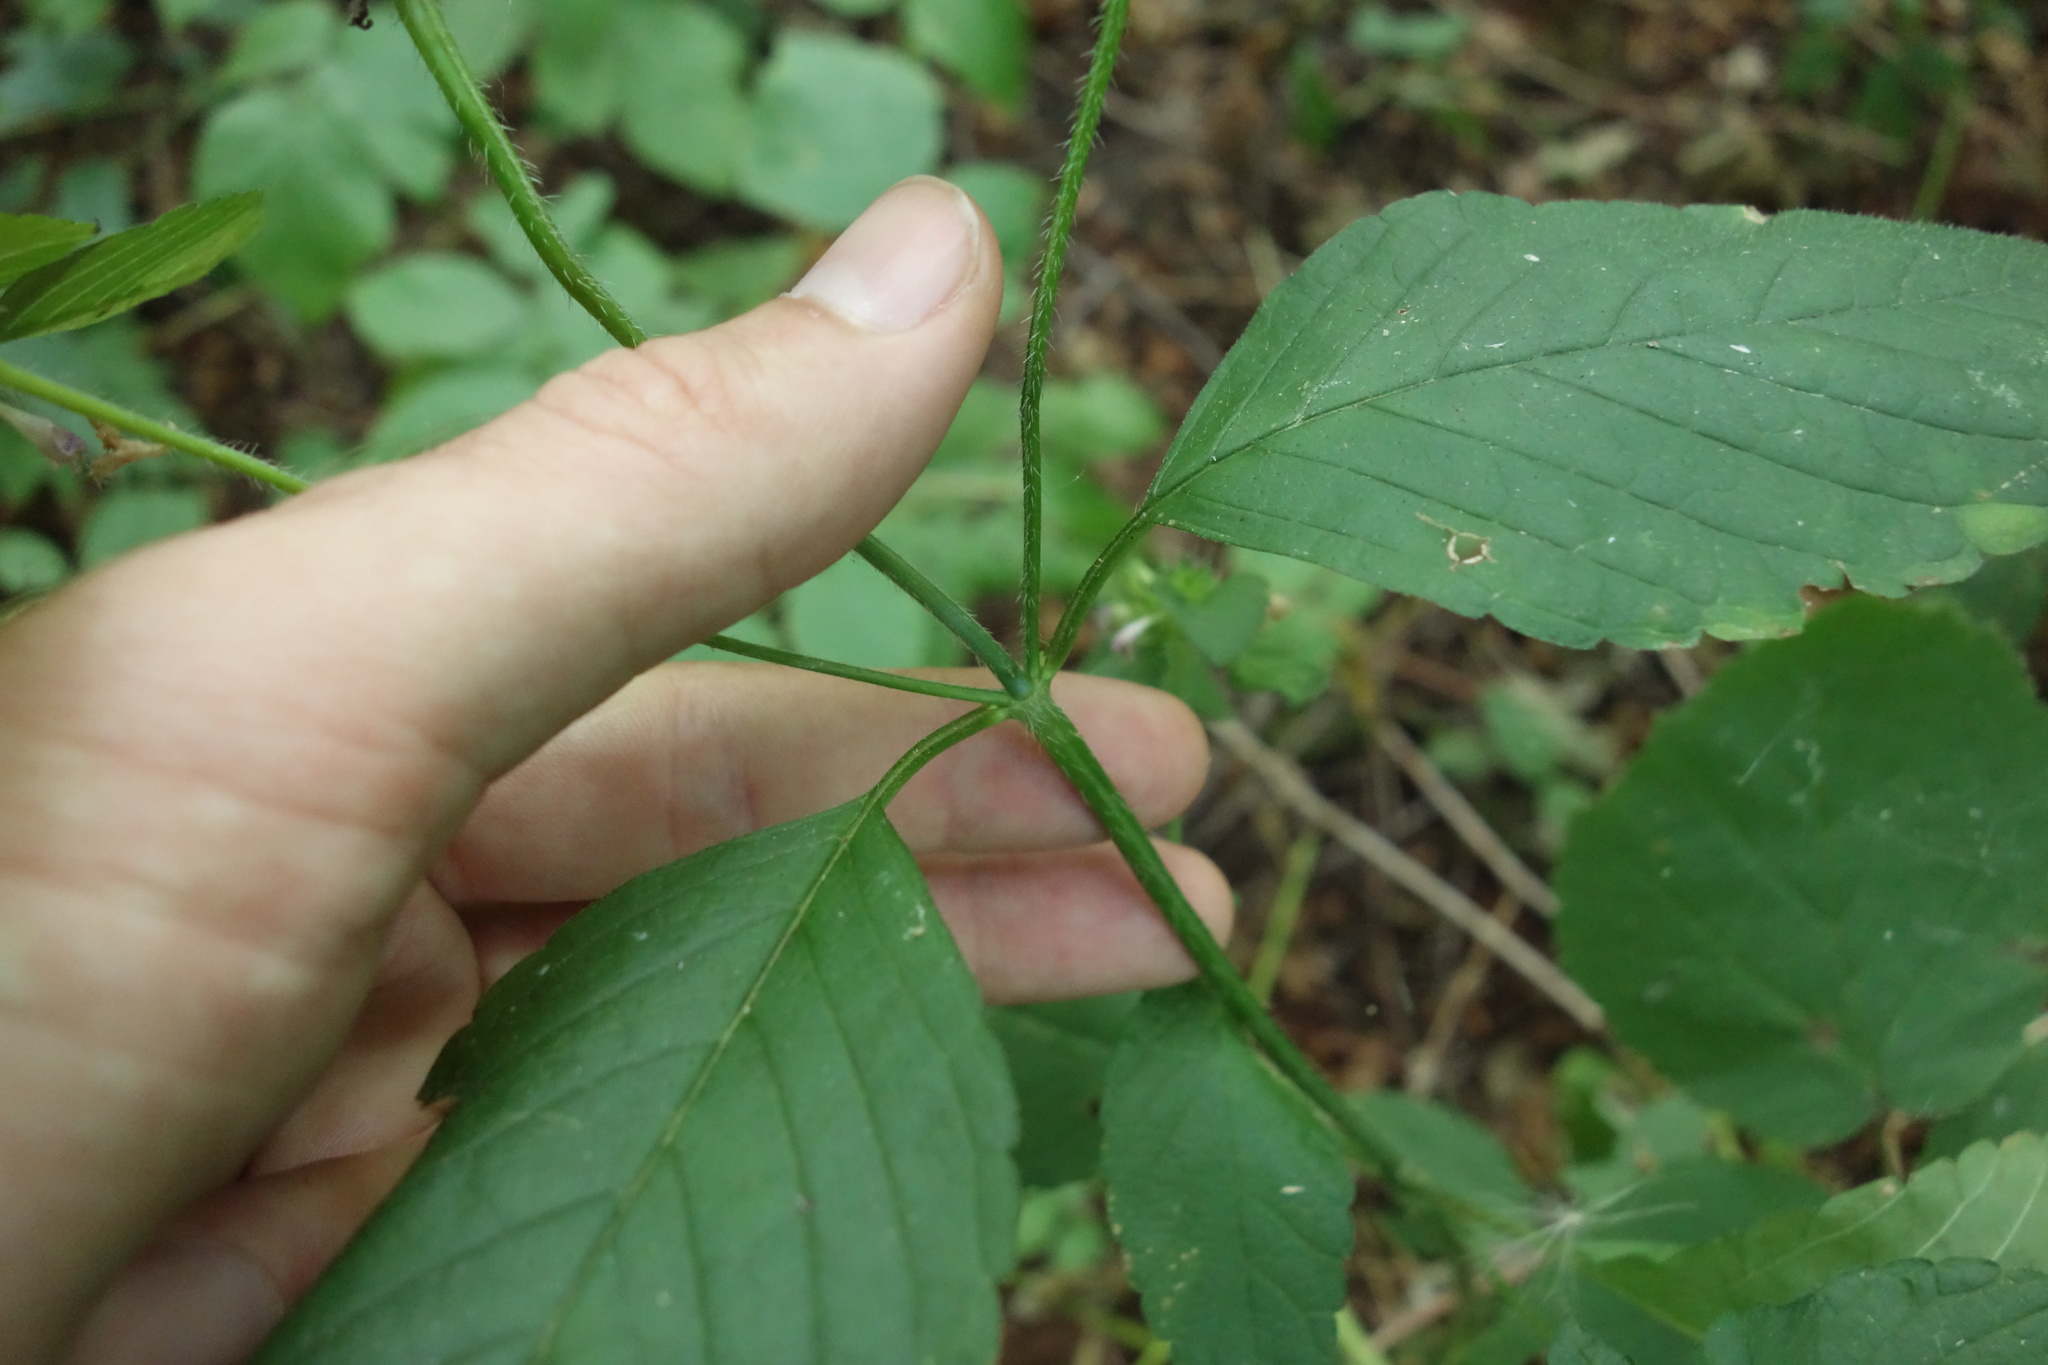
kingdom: Plantae
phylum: Tracheophyta
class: Magnoliopsida
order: Lamiales
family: Lamiaceae
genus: Galeopsis
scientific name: Galeopsis bifida
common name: Bifid hemp-nettle
